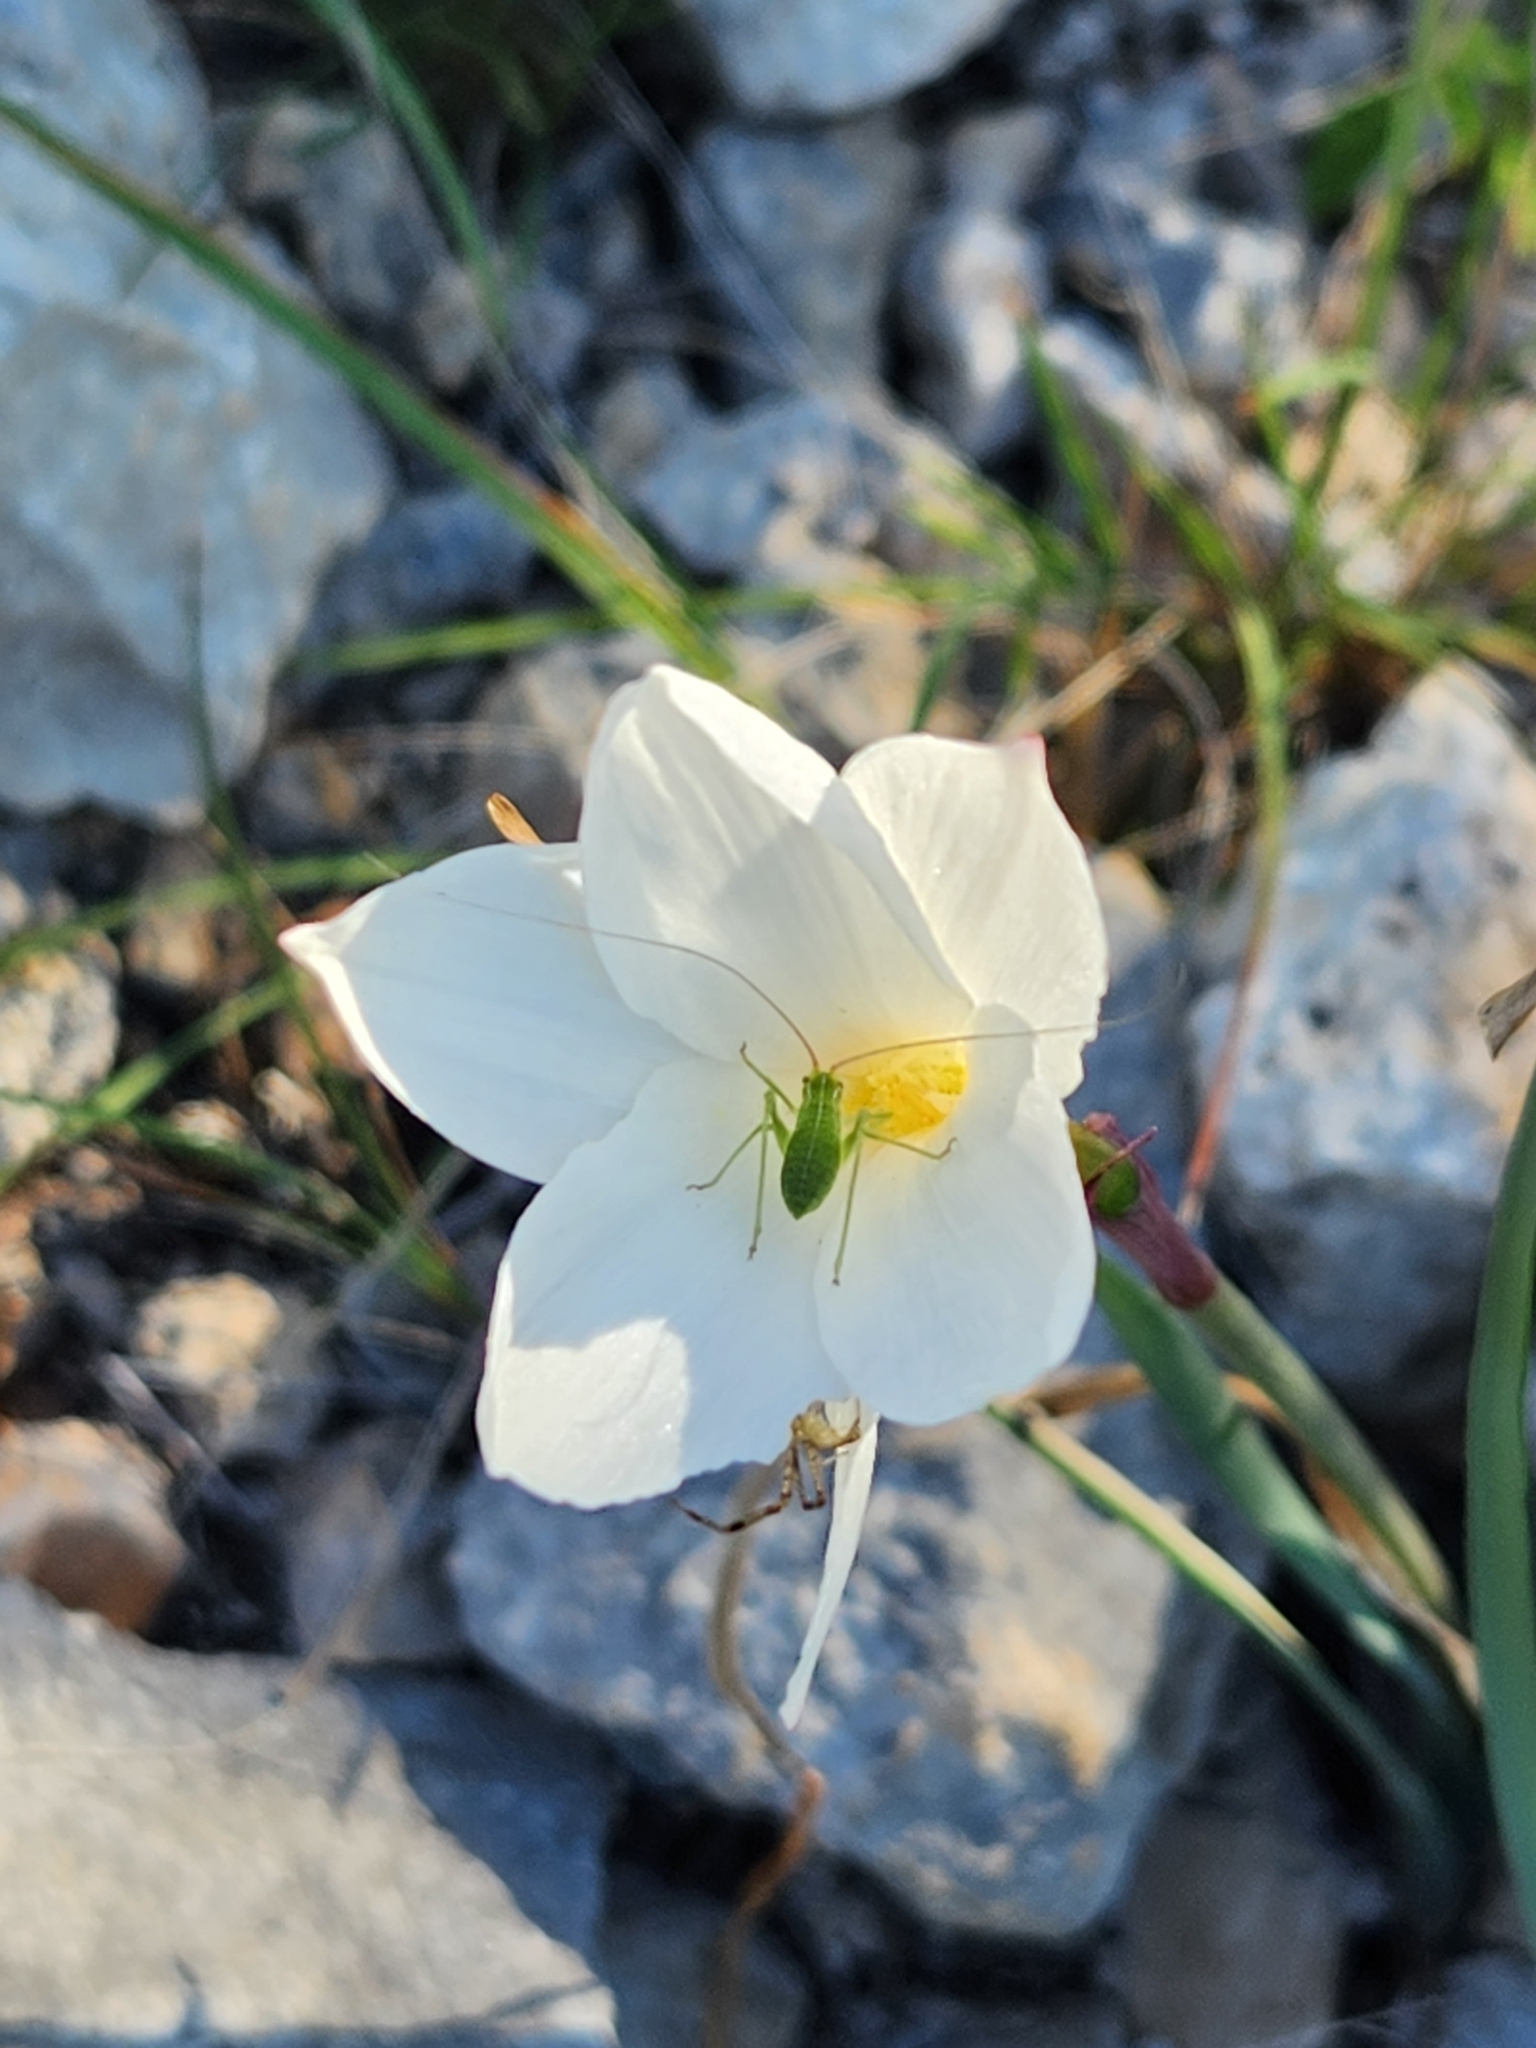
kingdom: Plantae
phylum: Tracheophyta
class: Liliopsida
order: Asparagales
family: Amaryllidaceae
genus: Zephyranthes
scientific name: Zephyranthes drummondii
